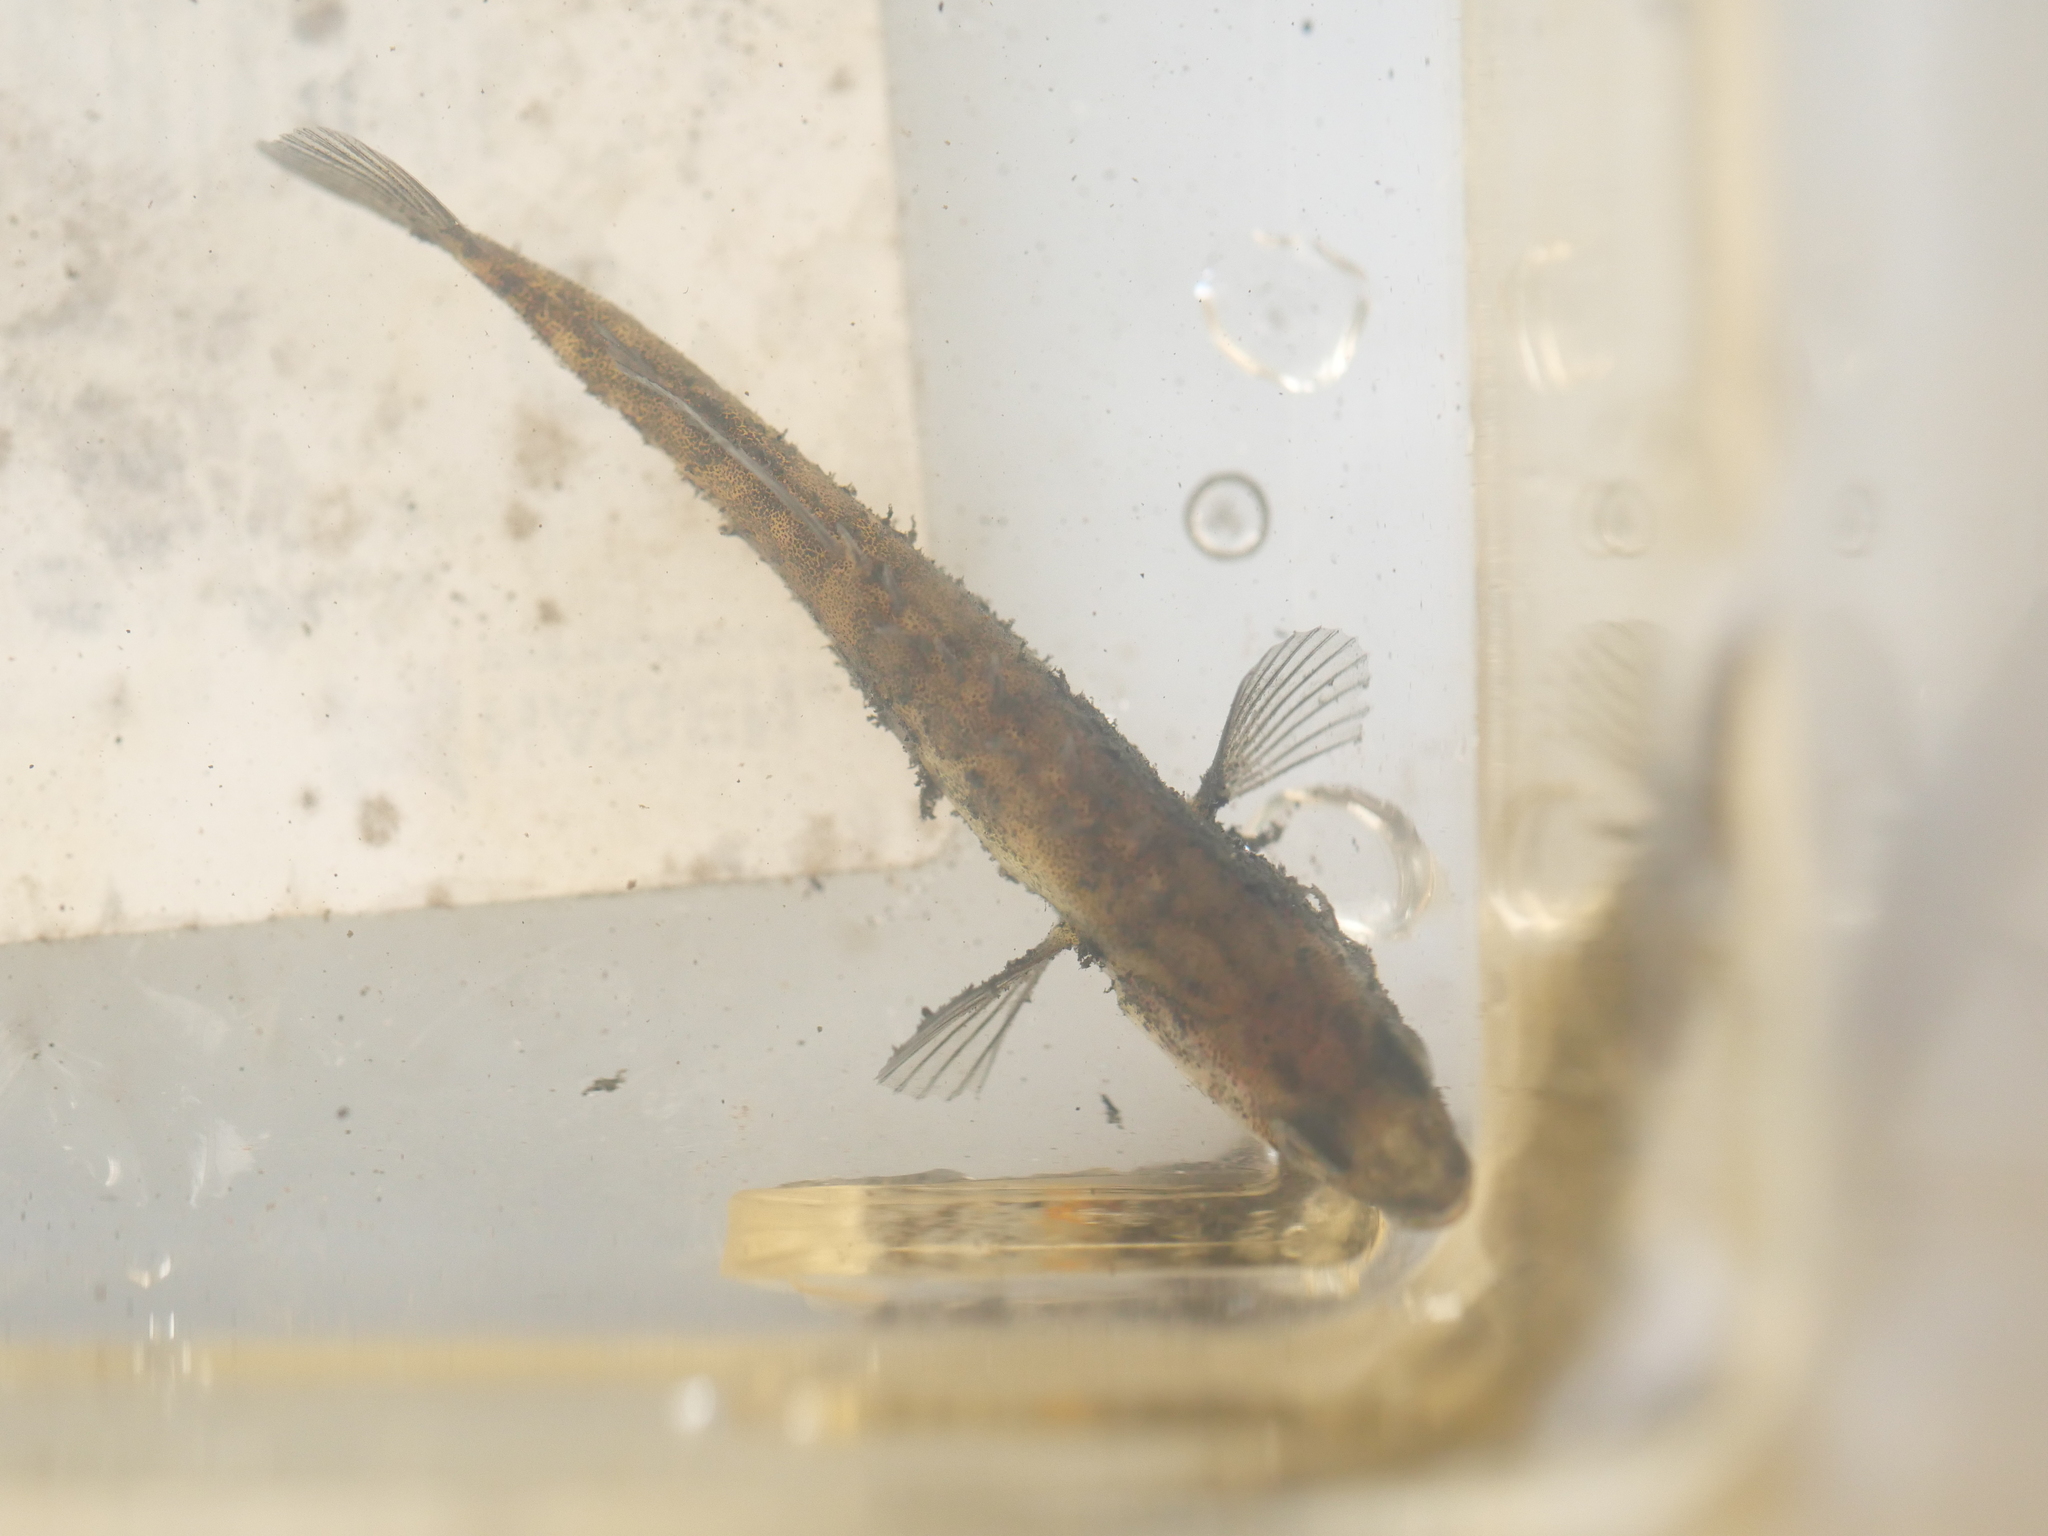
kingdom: Animalia
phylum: Chordata
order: Gasterosteiformes
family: Gasterosteidae
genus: Pungitius
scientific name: Pungitius pungitius
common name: Nine-spined stickleback
